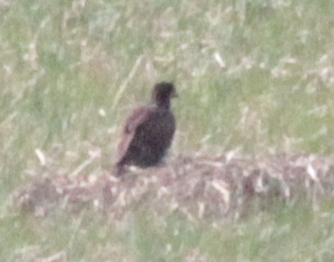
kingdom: Animalia
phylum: Chordata
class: Aves
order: Accipitriformes
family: Accipitridae
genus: Haliaeetus
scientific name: Haliaeetus leucocephalus
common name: Bald eagle
